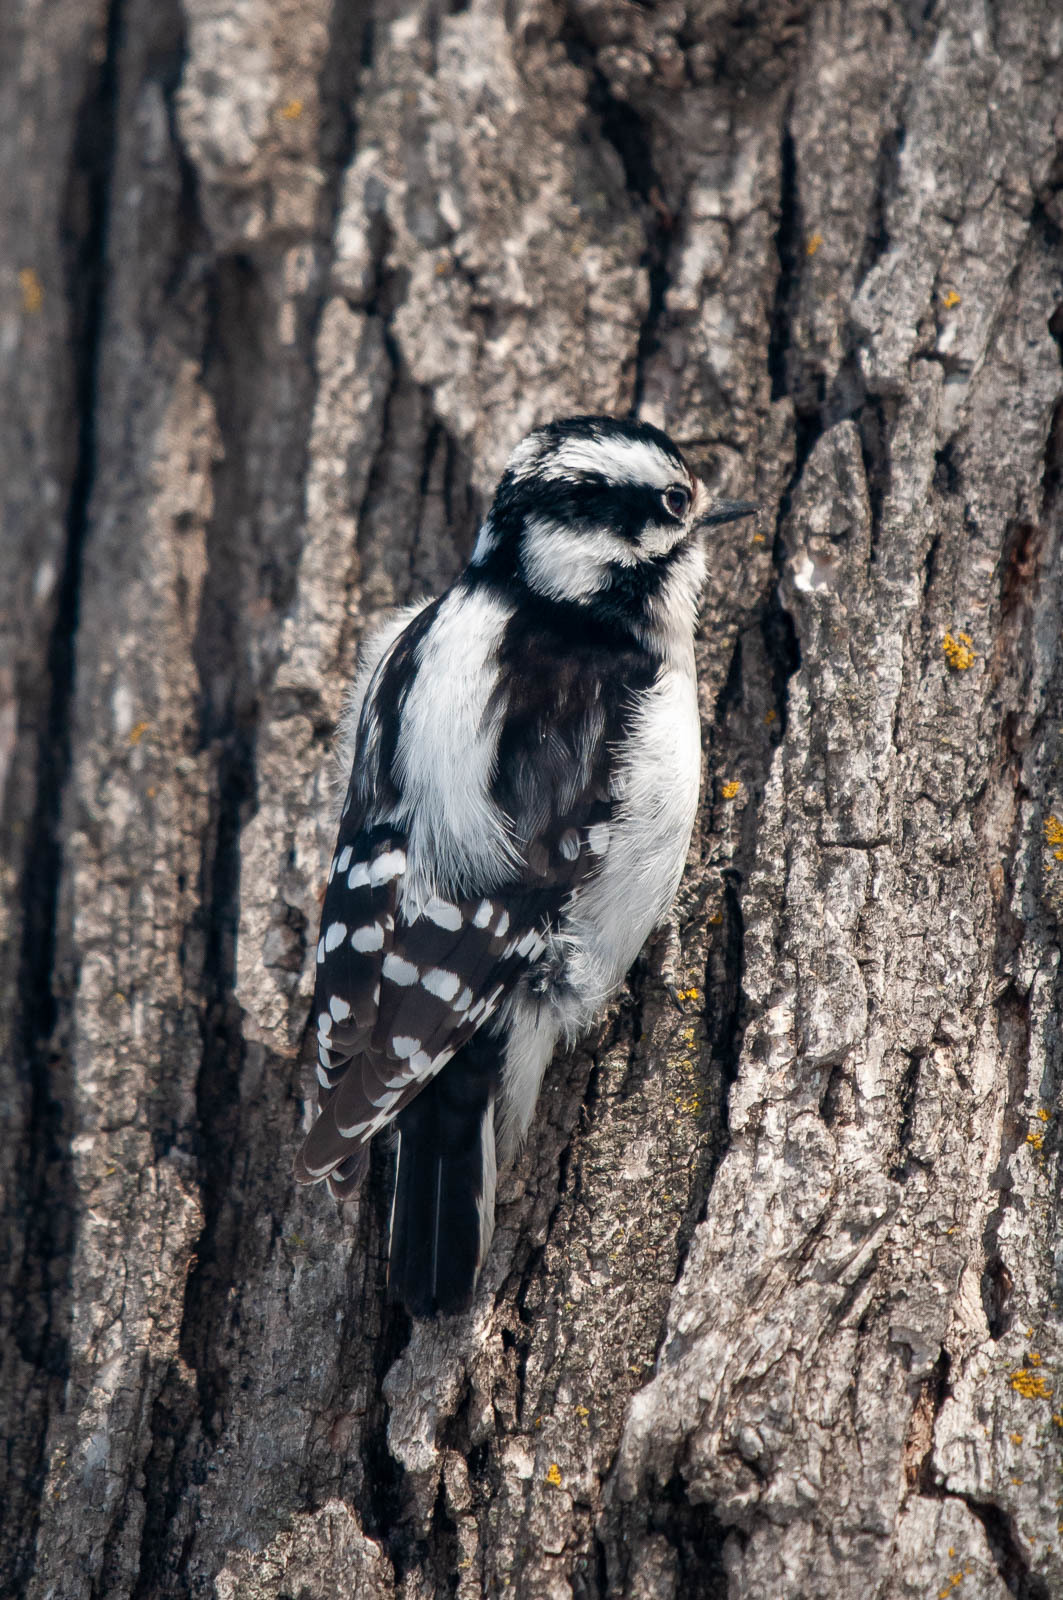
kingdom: Animalia
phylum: Chordata
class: Aves
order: Piciformes
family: Picidae
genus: Dryobates
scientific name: Dryobates pubescens
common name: Downy woodpecker
